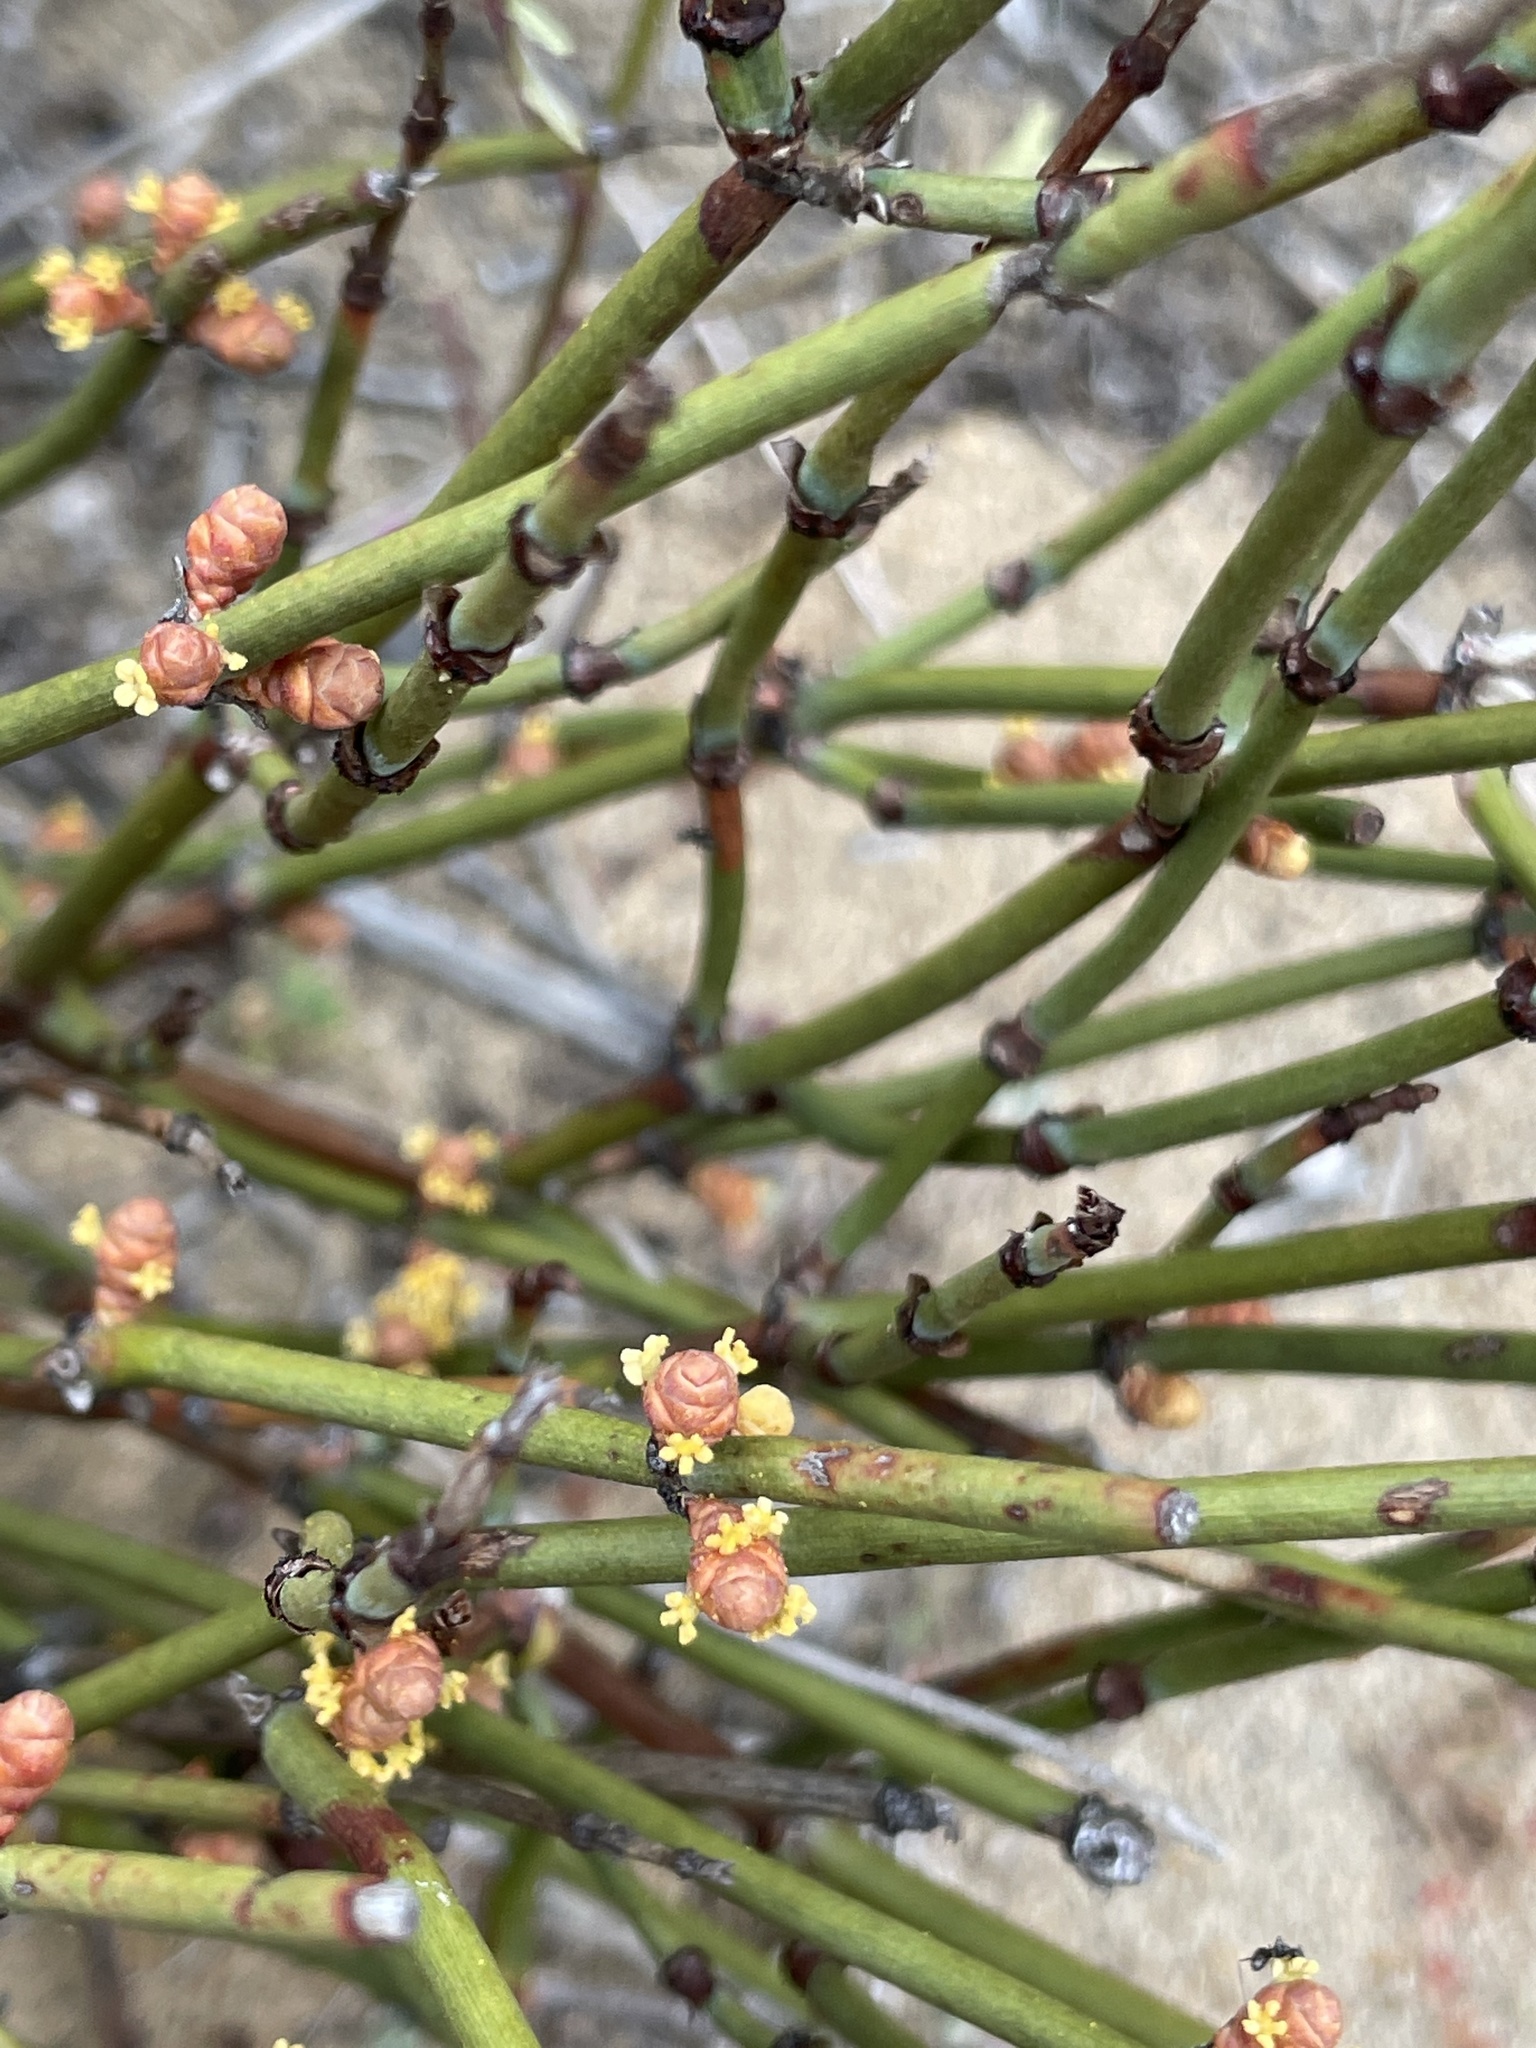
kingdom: Plantae
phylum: Tracheophyta
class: Gnetopsida
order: Ephedrales
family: Ephedraceae
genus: Ephedra
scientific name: Ephedra californica
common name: California ephedra
